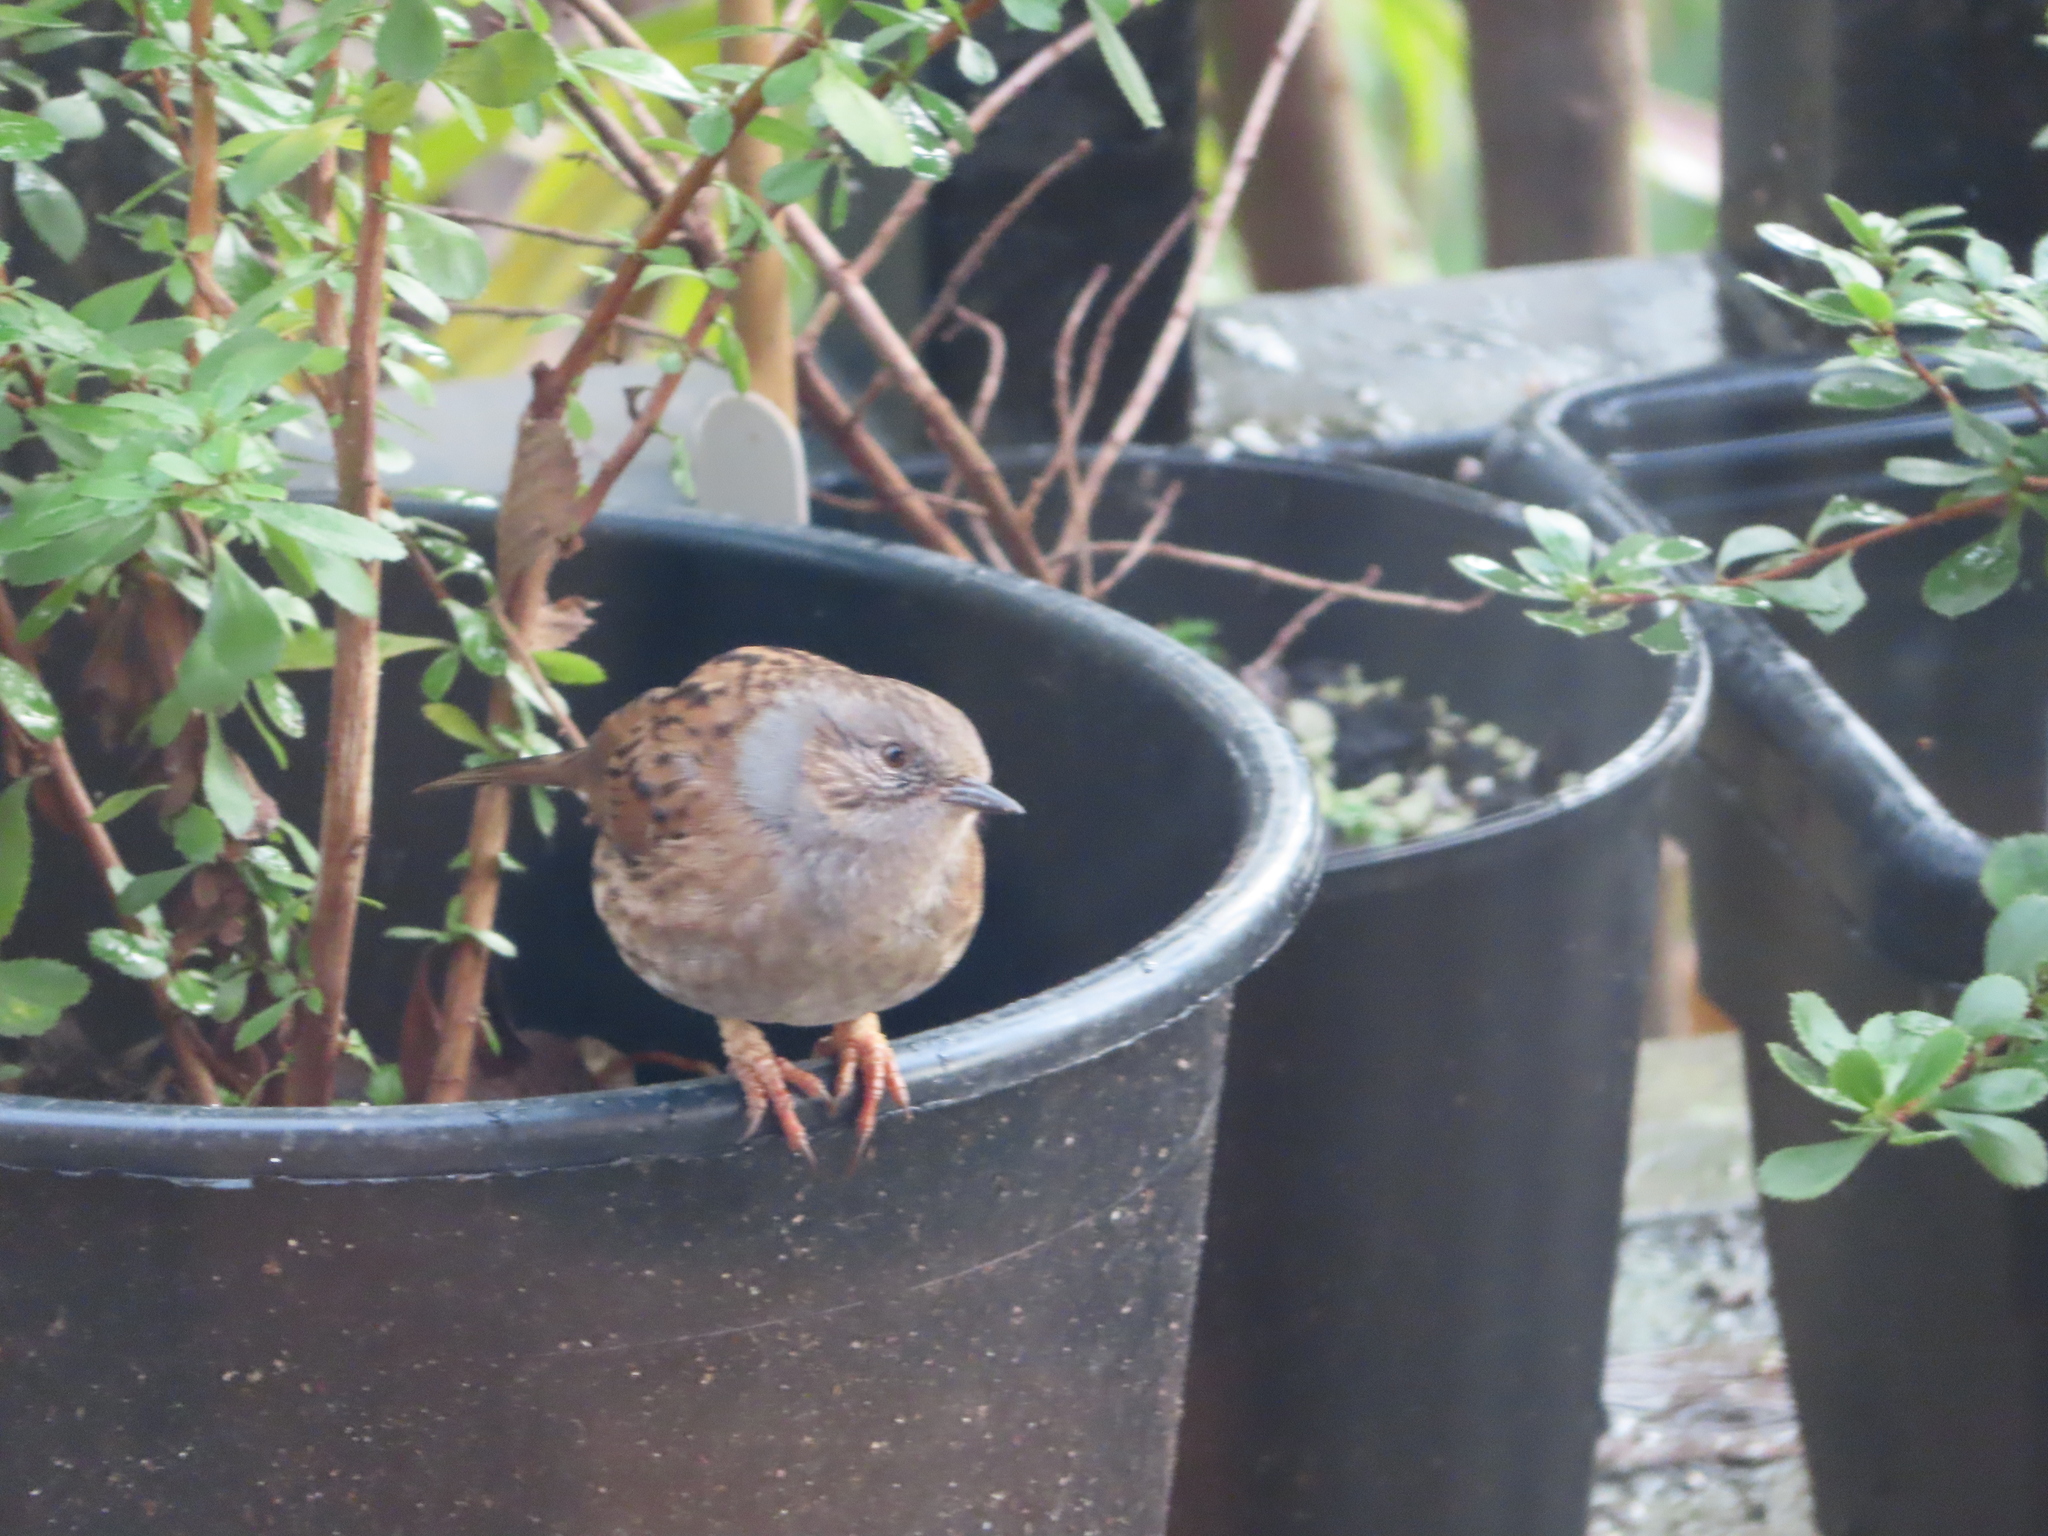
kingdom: Animalia
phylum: Chordata
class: Aves
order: Passeriformes
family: Prunellidae
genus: Prunella
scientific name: Prunella modularis
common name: Dunnock
